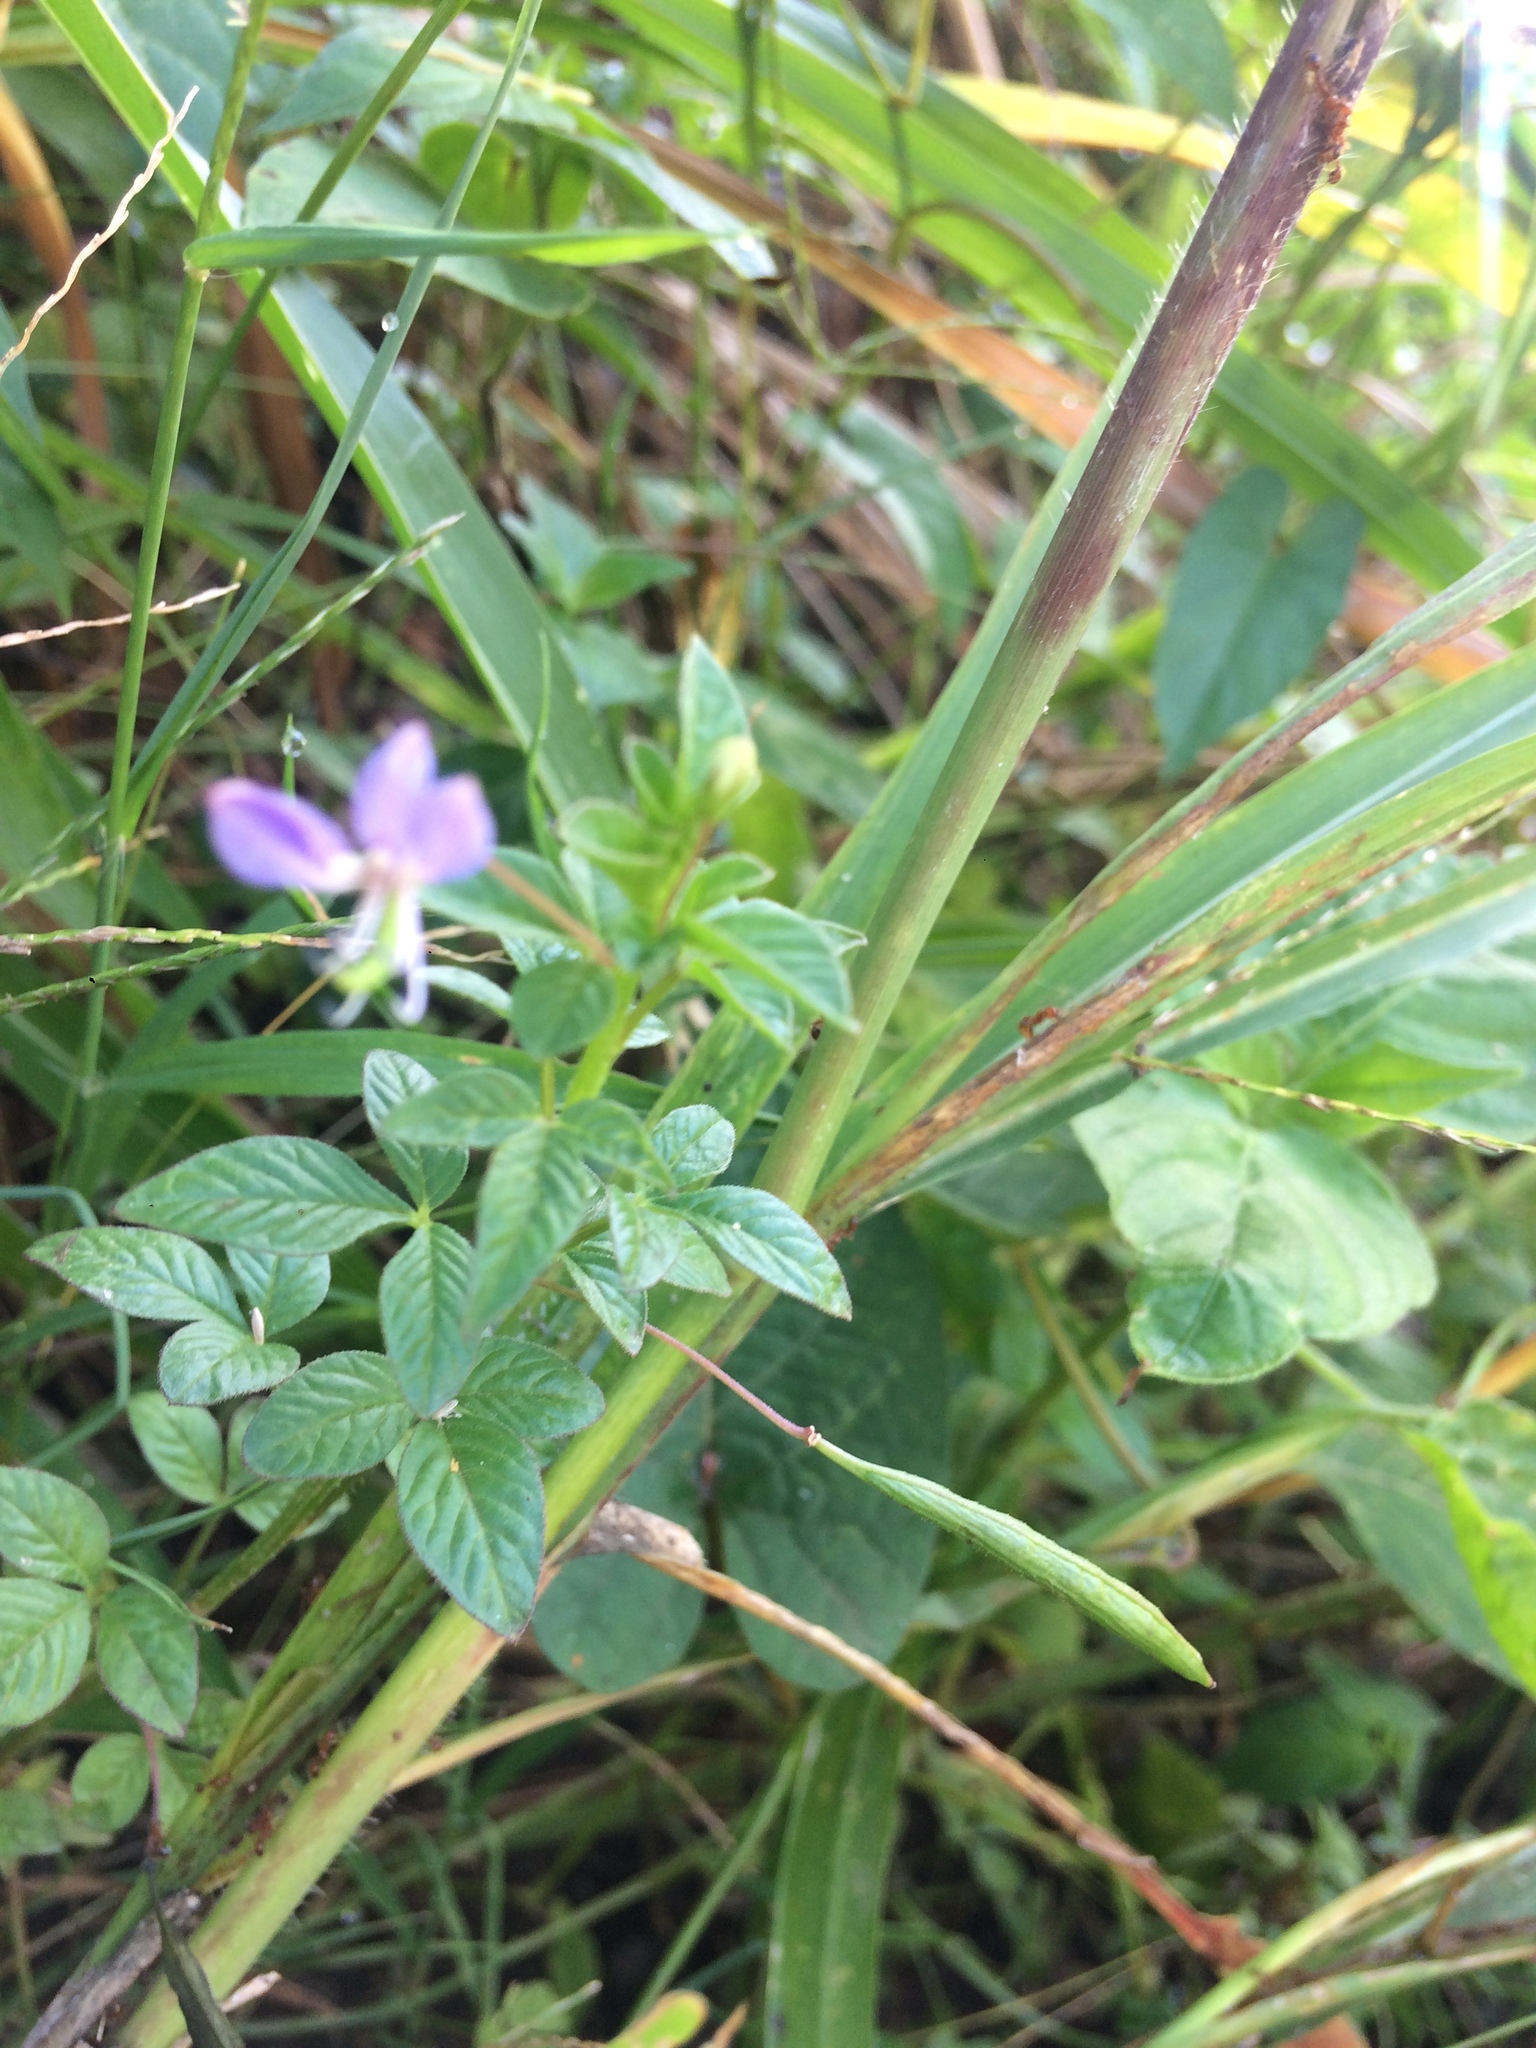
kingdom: Plantae
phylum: Tracheophyta
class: Magnoliopsida
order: Brassicales
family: Cleomaceae
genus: Sieruela
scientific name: Sieruela rutidosperma
